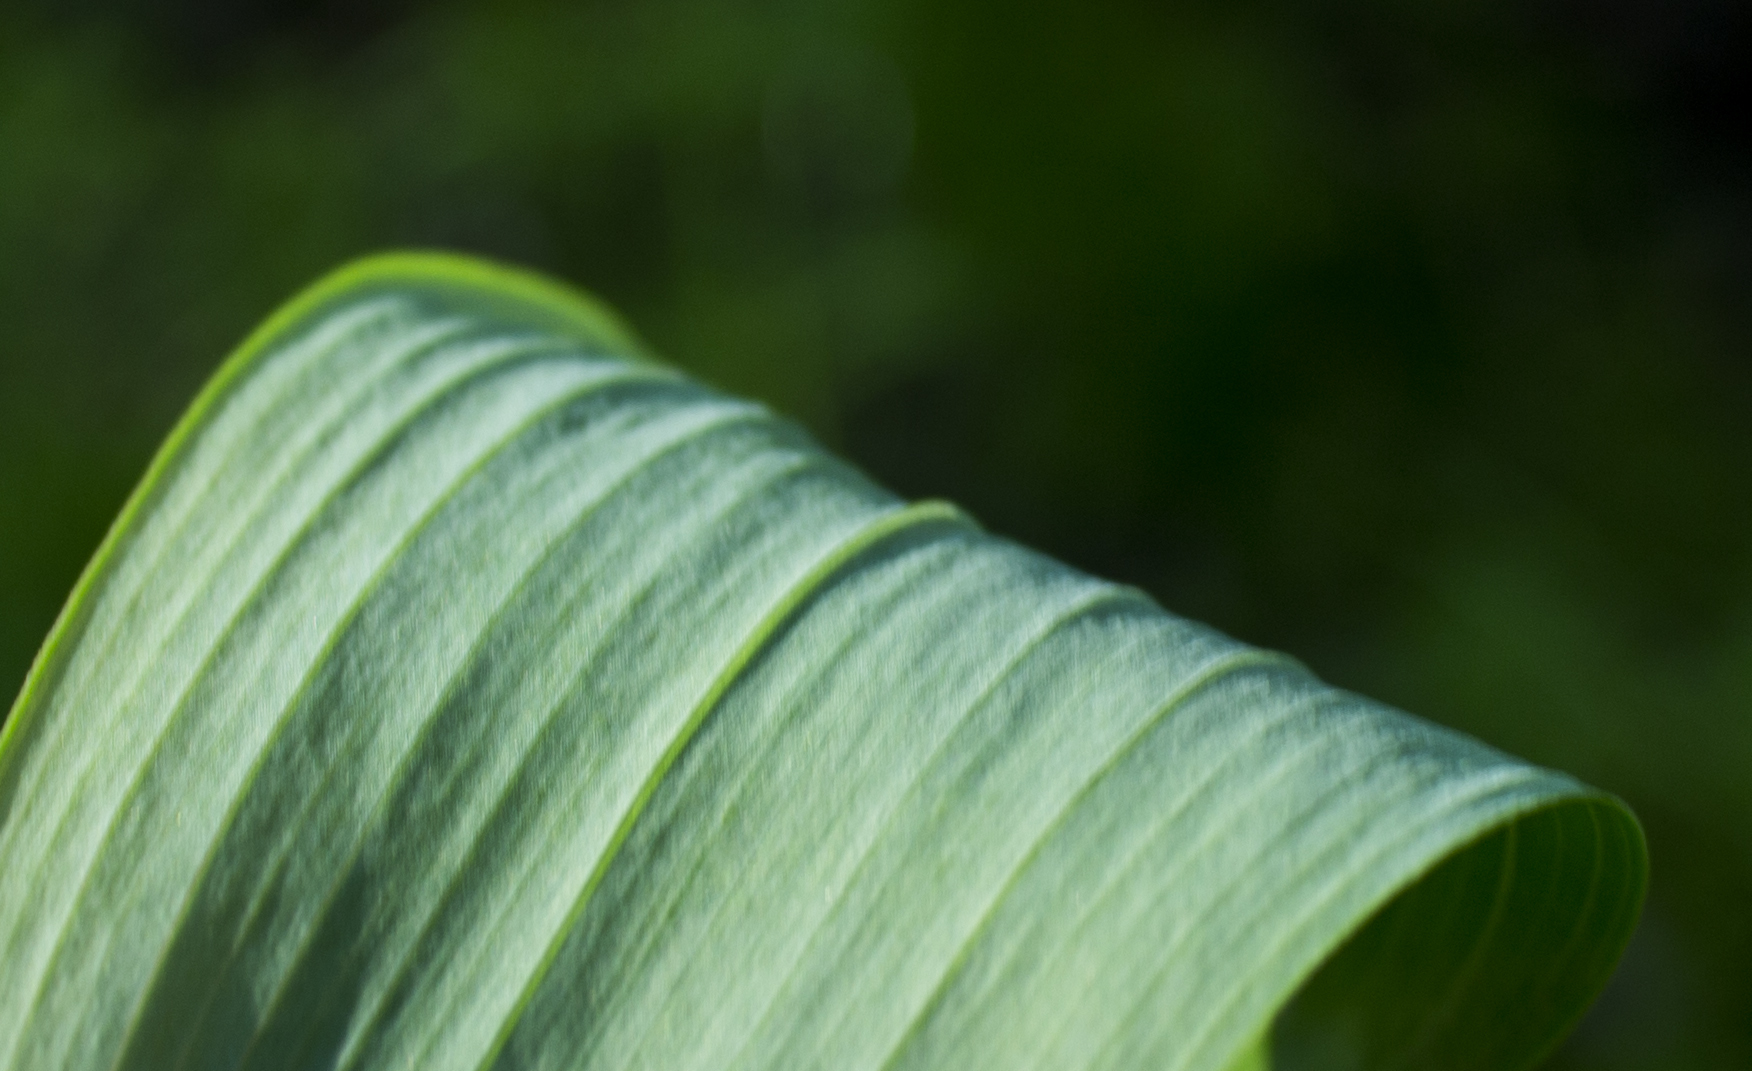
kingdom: Plantae
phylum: Tracheophyta
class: Liliopsida
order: Asparagales
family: Asparagaceae
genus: Polygonatum
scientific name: Polygonatum biflorum
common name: American solomon's-seal
